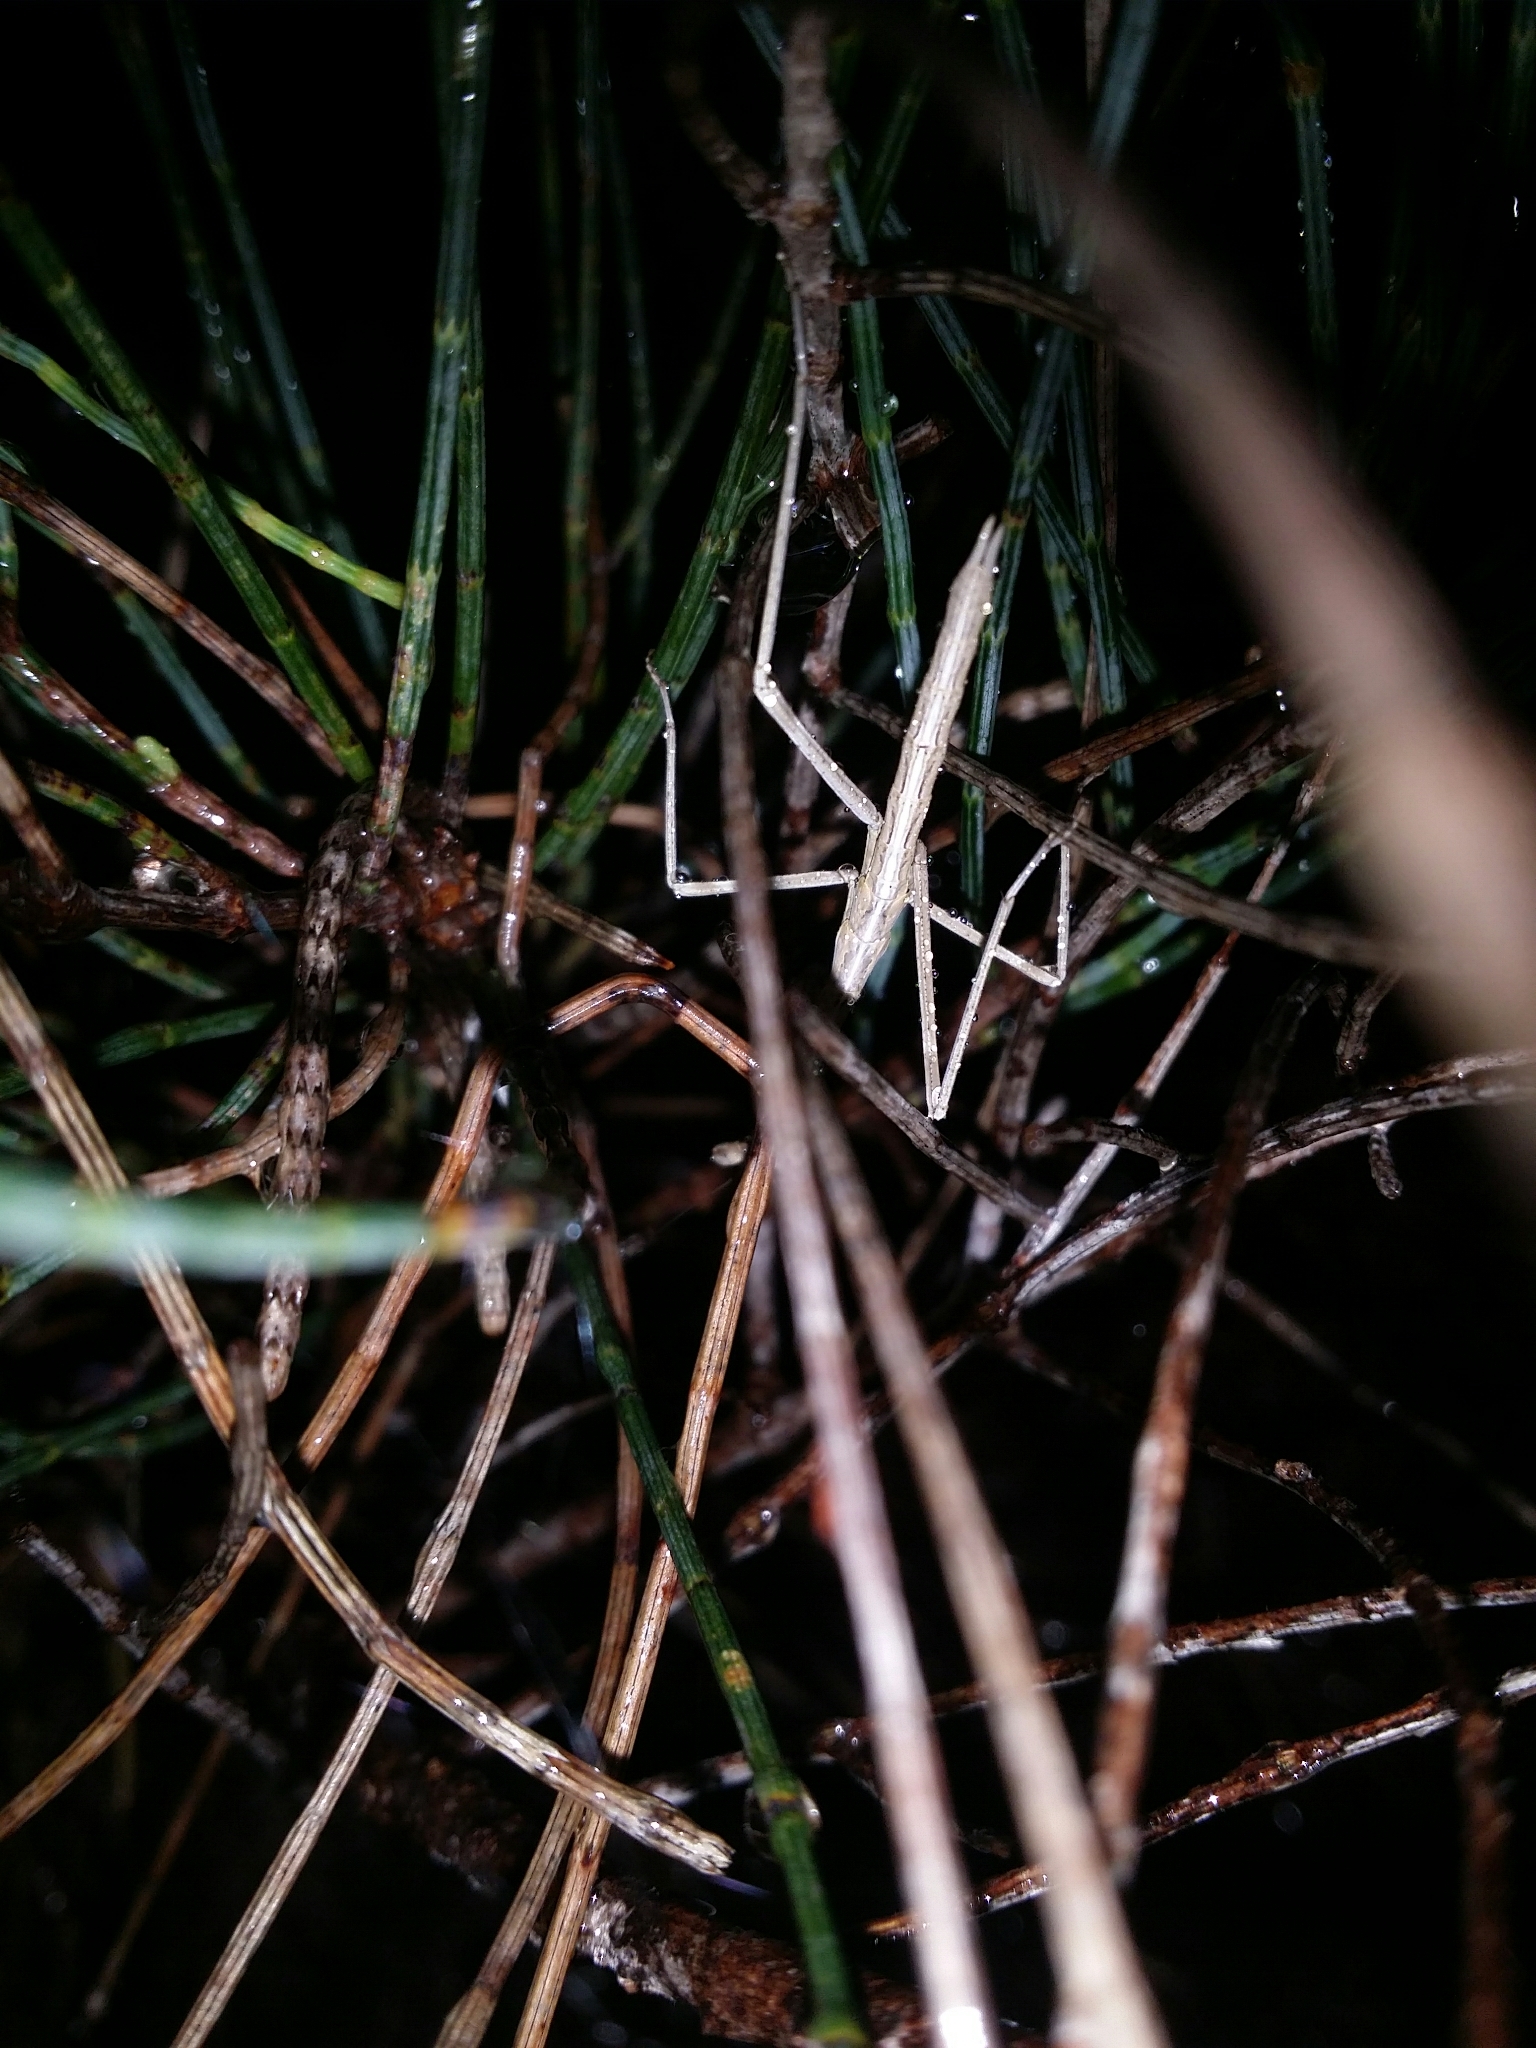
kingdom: Animalia
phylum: Arthropoda
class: Insecta
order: Mantodea
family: Mantidae
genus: Archimantis
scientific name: Archimantis sobrina
